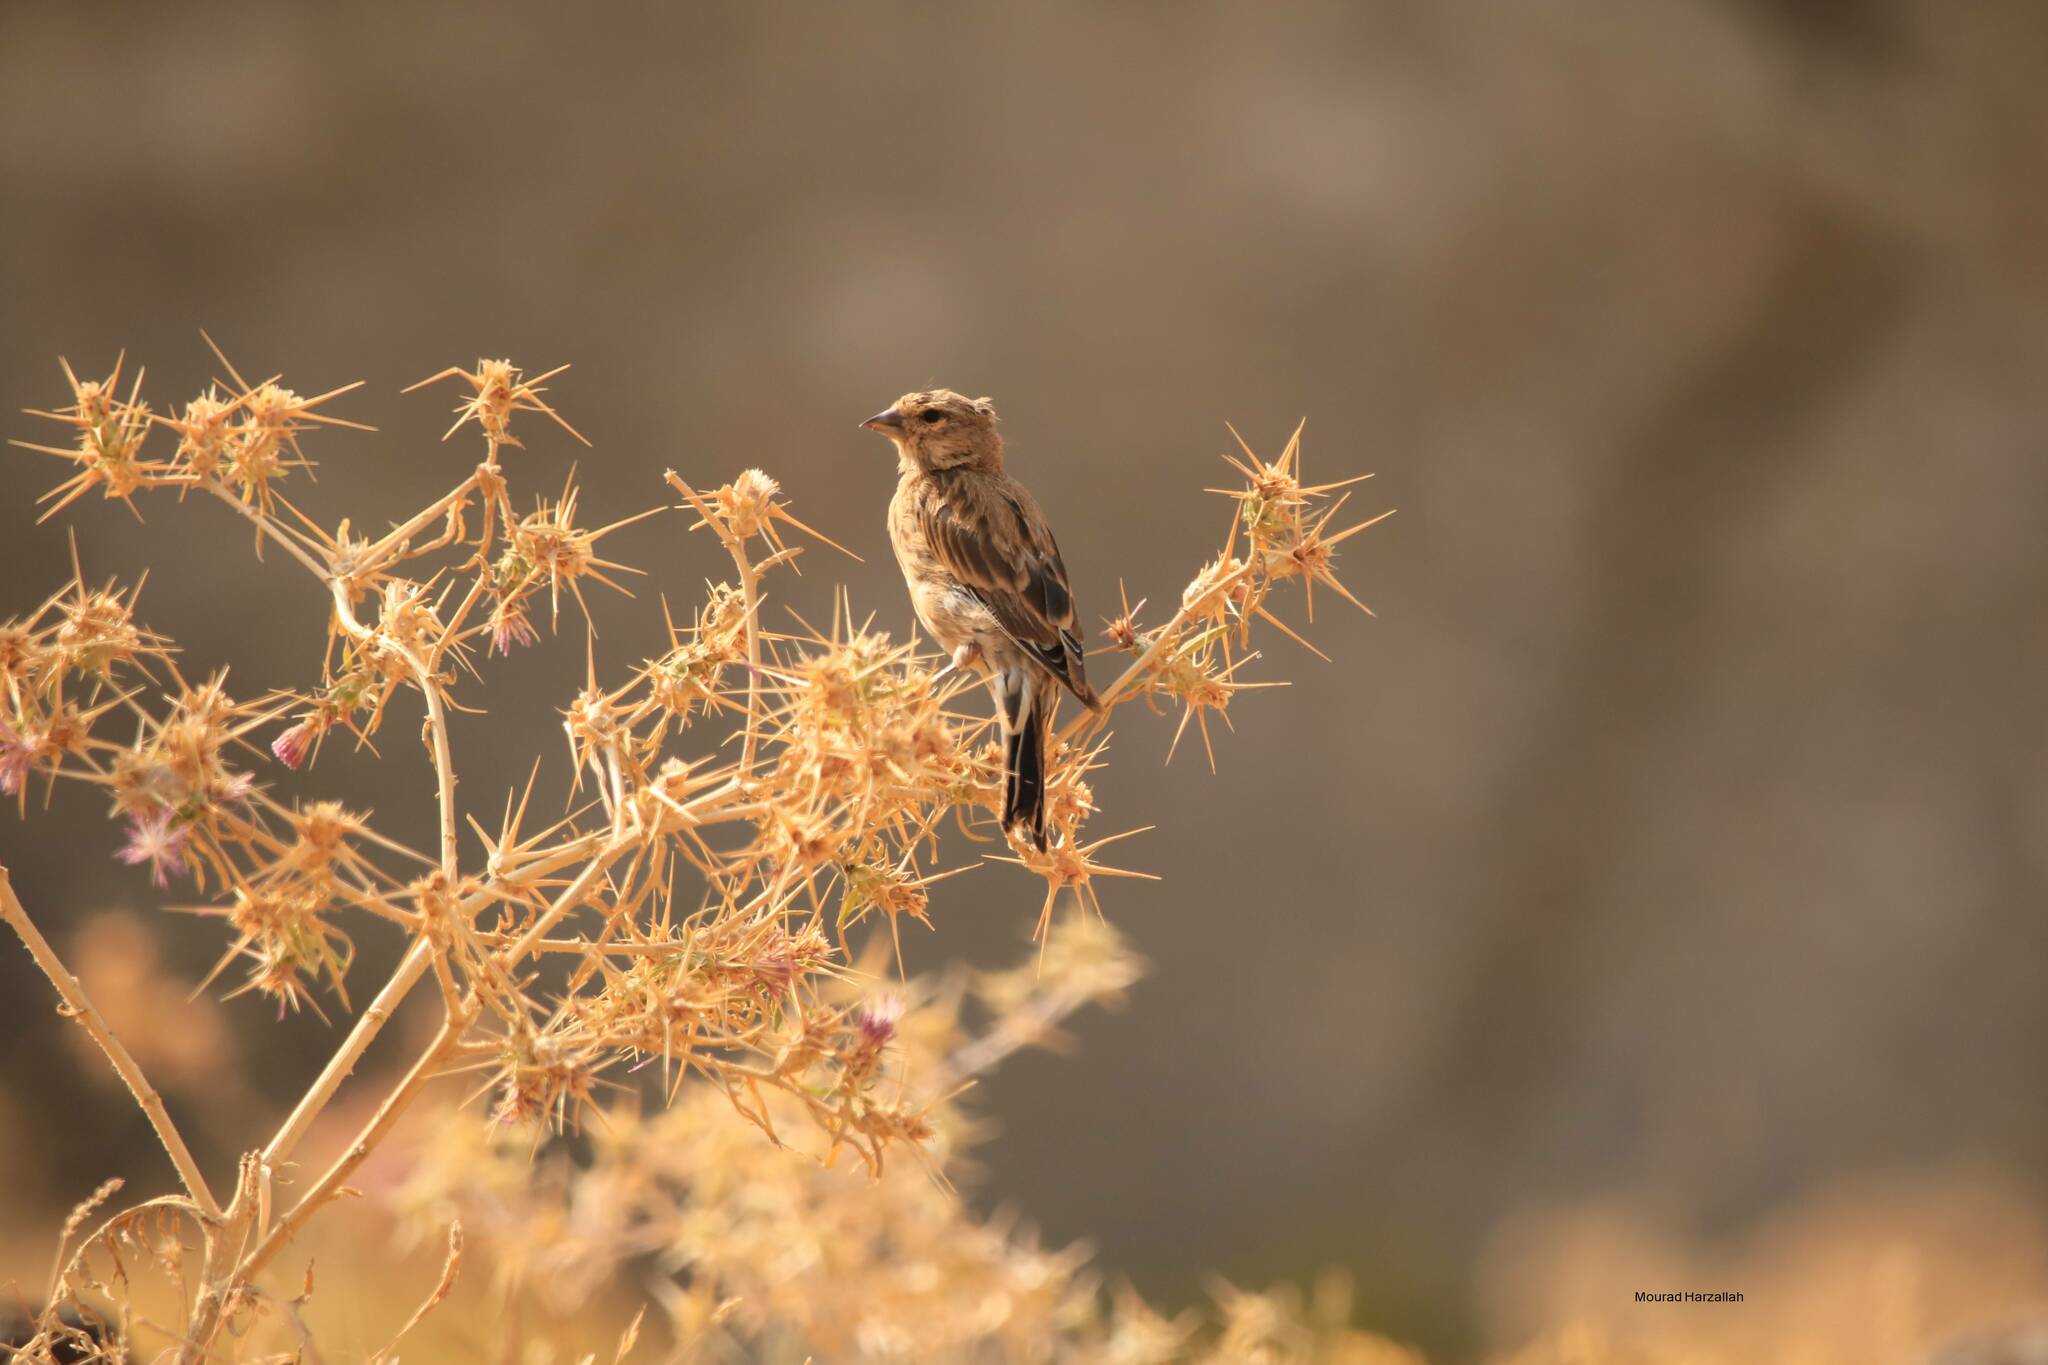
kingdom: Animalia
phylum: Chordata
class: Aves
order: Passeriformes
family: Fringillidae
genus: Linaria
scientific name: Linaria cannabina
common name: Common linnet
